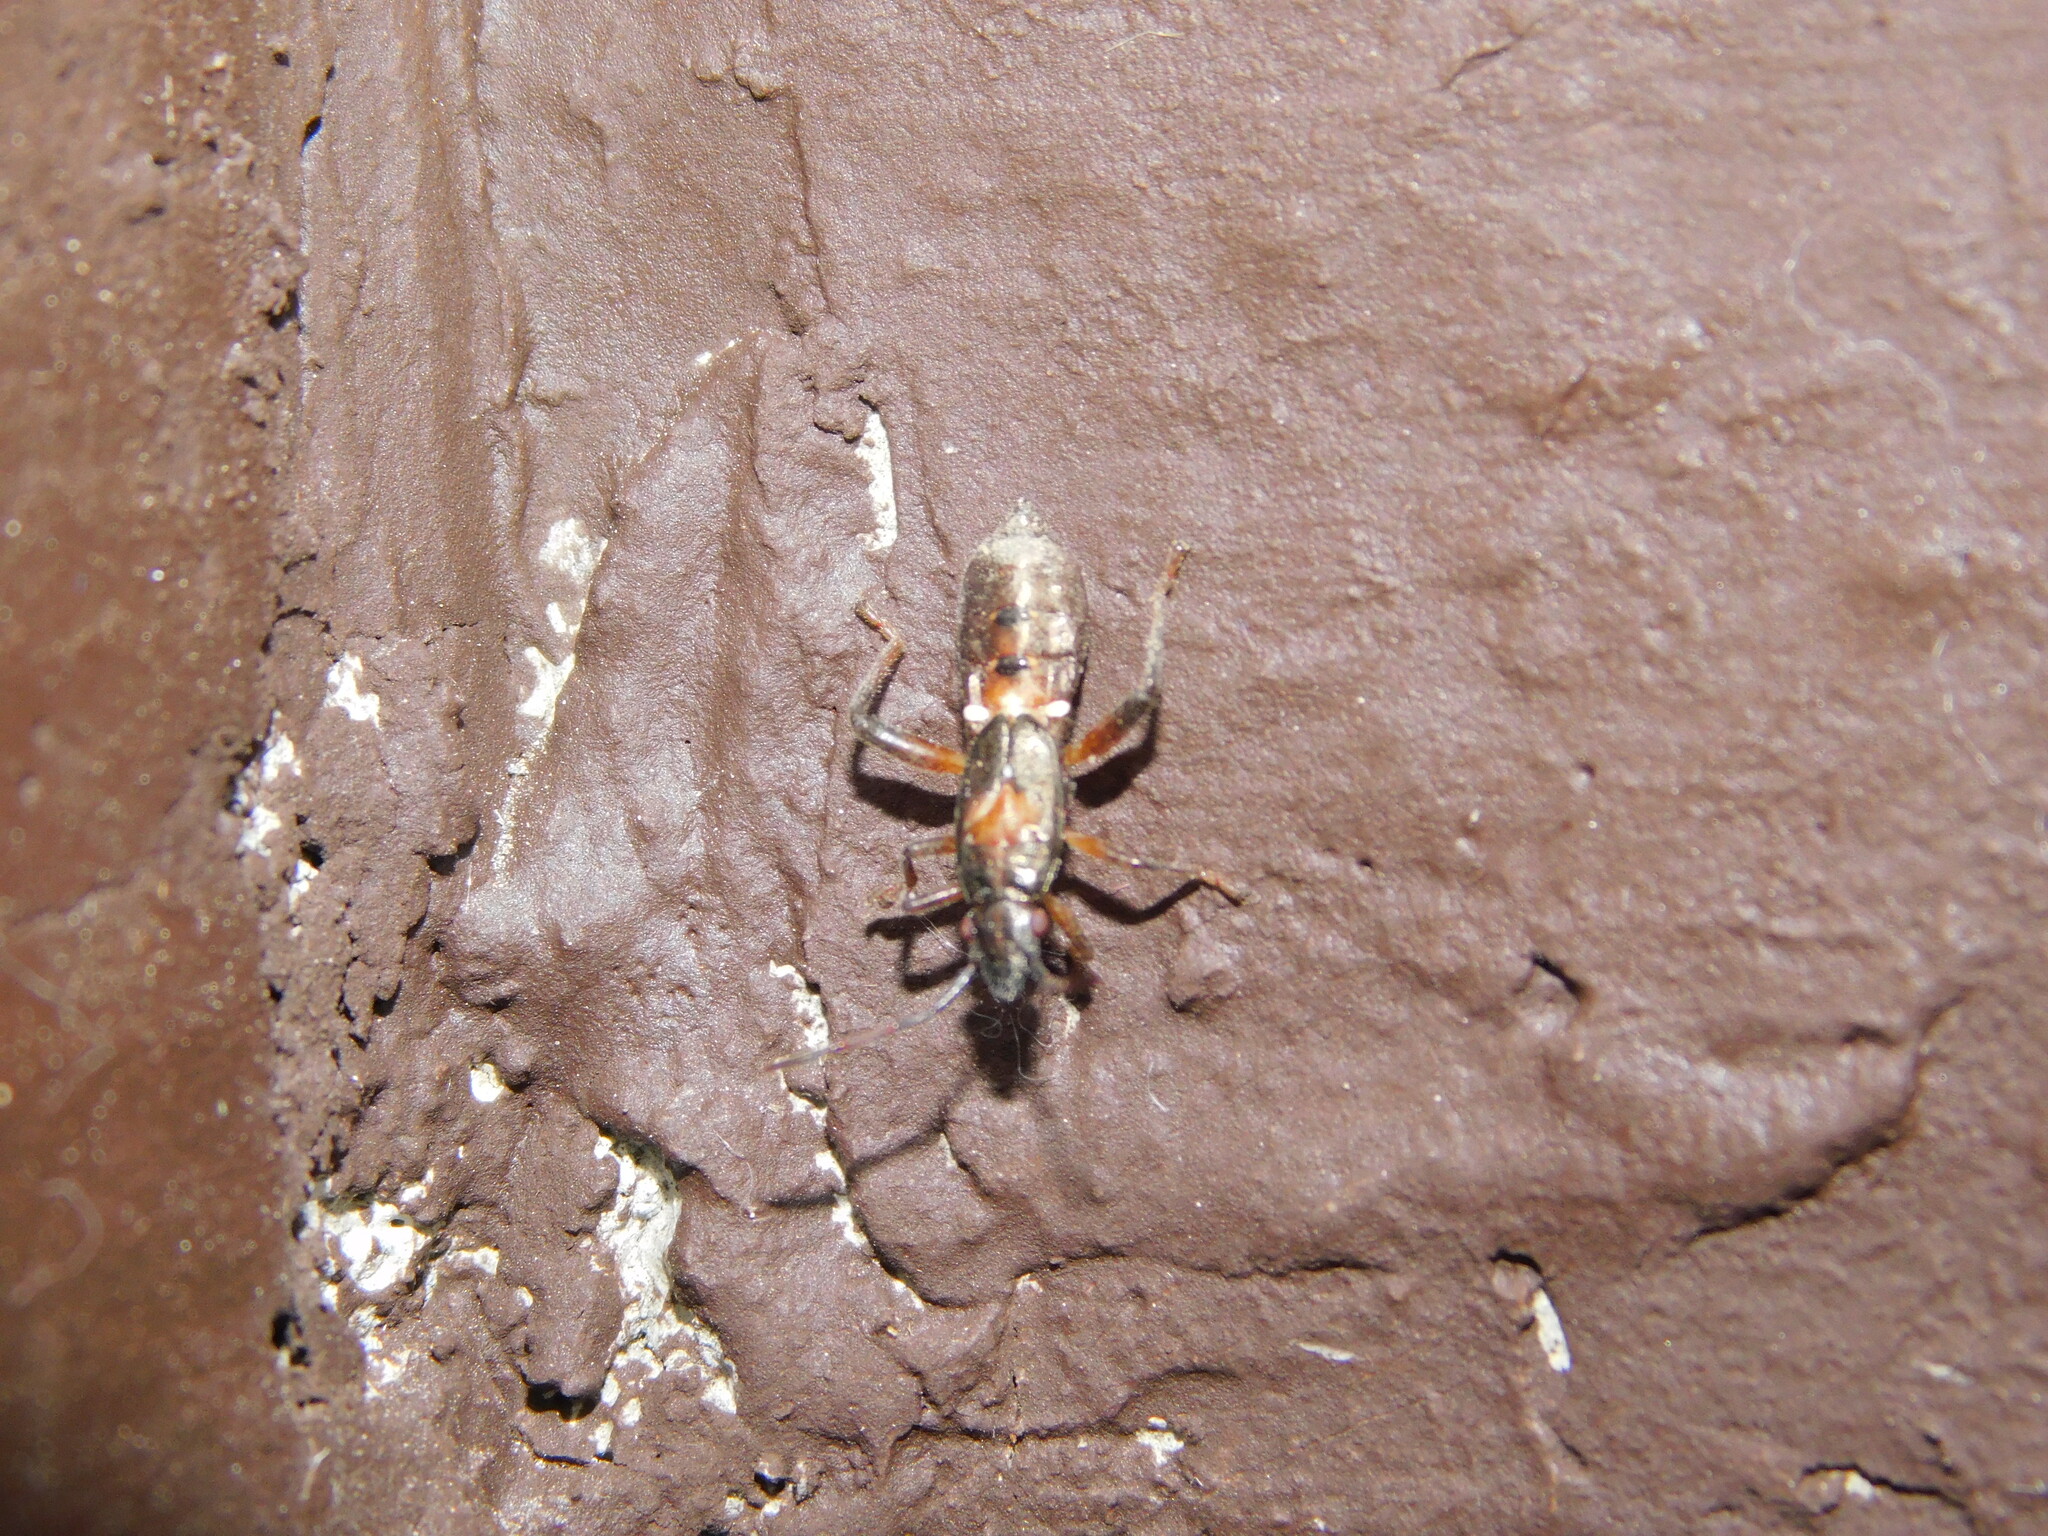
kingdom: Animalia
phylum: Arthropoda
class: Insecta
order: Hemiptera
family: Alydidae
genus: Daclera
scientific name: Daclera levana
